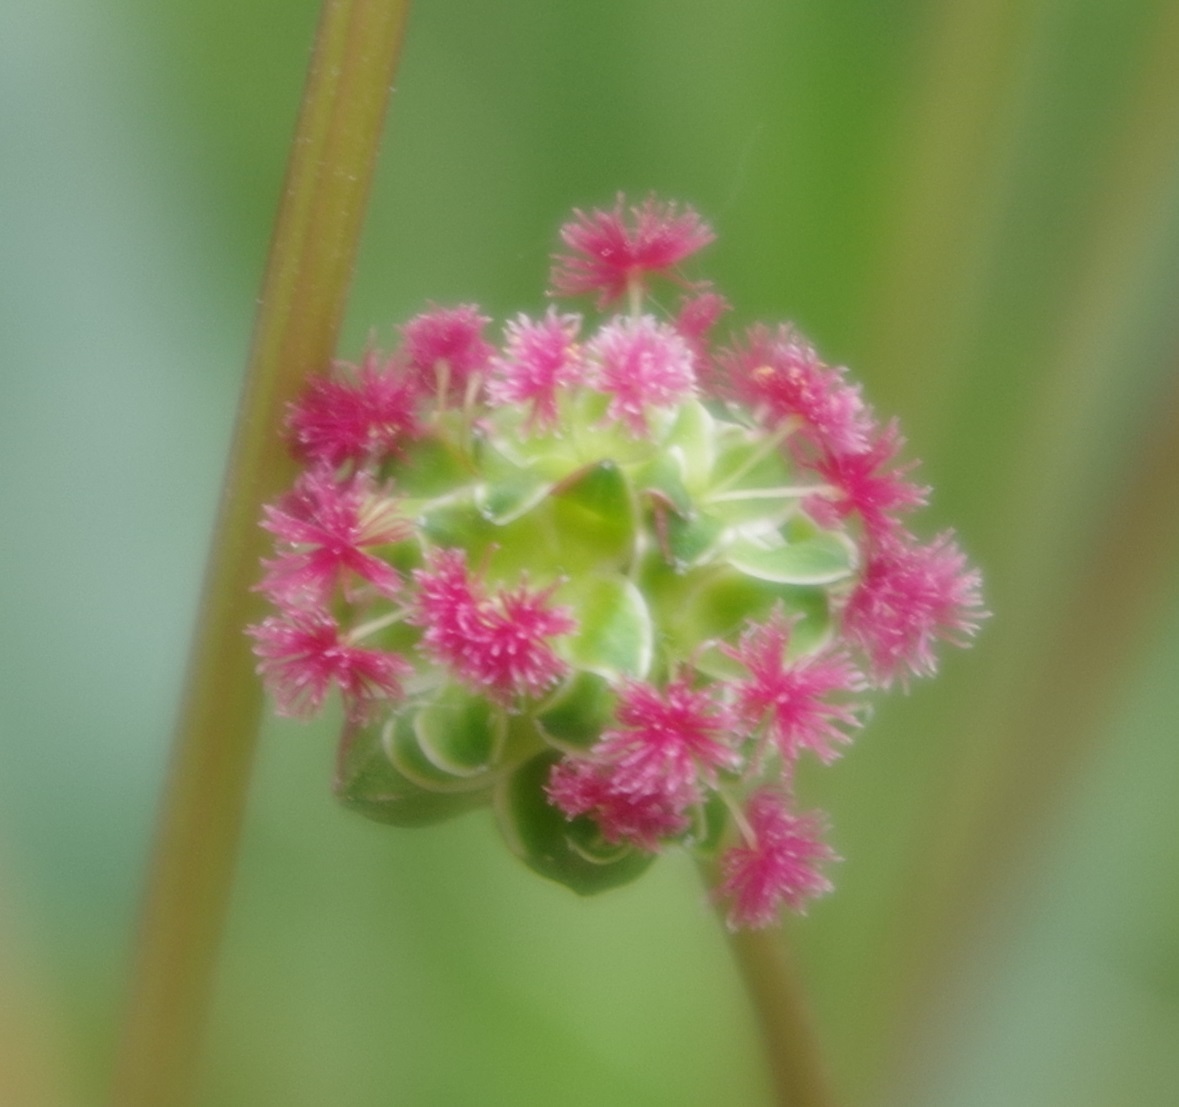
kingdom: Plantae
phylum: Tracheophyta
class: Magnoliopsida
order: Rosales
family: Rosaceae
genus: Poterium
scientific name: Poterium sanguisorba
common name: Salad burnet
